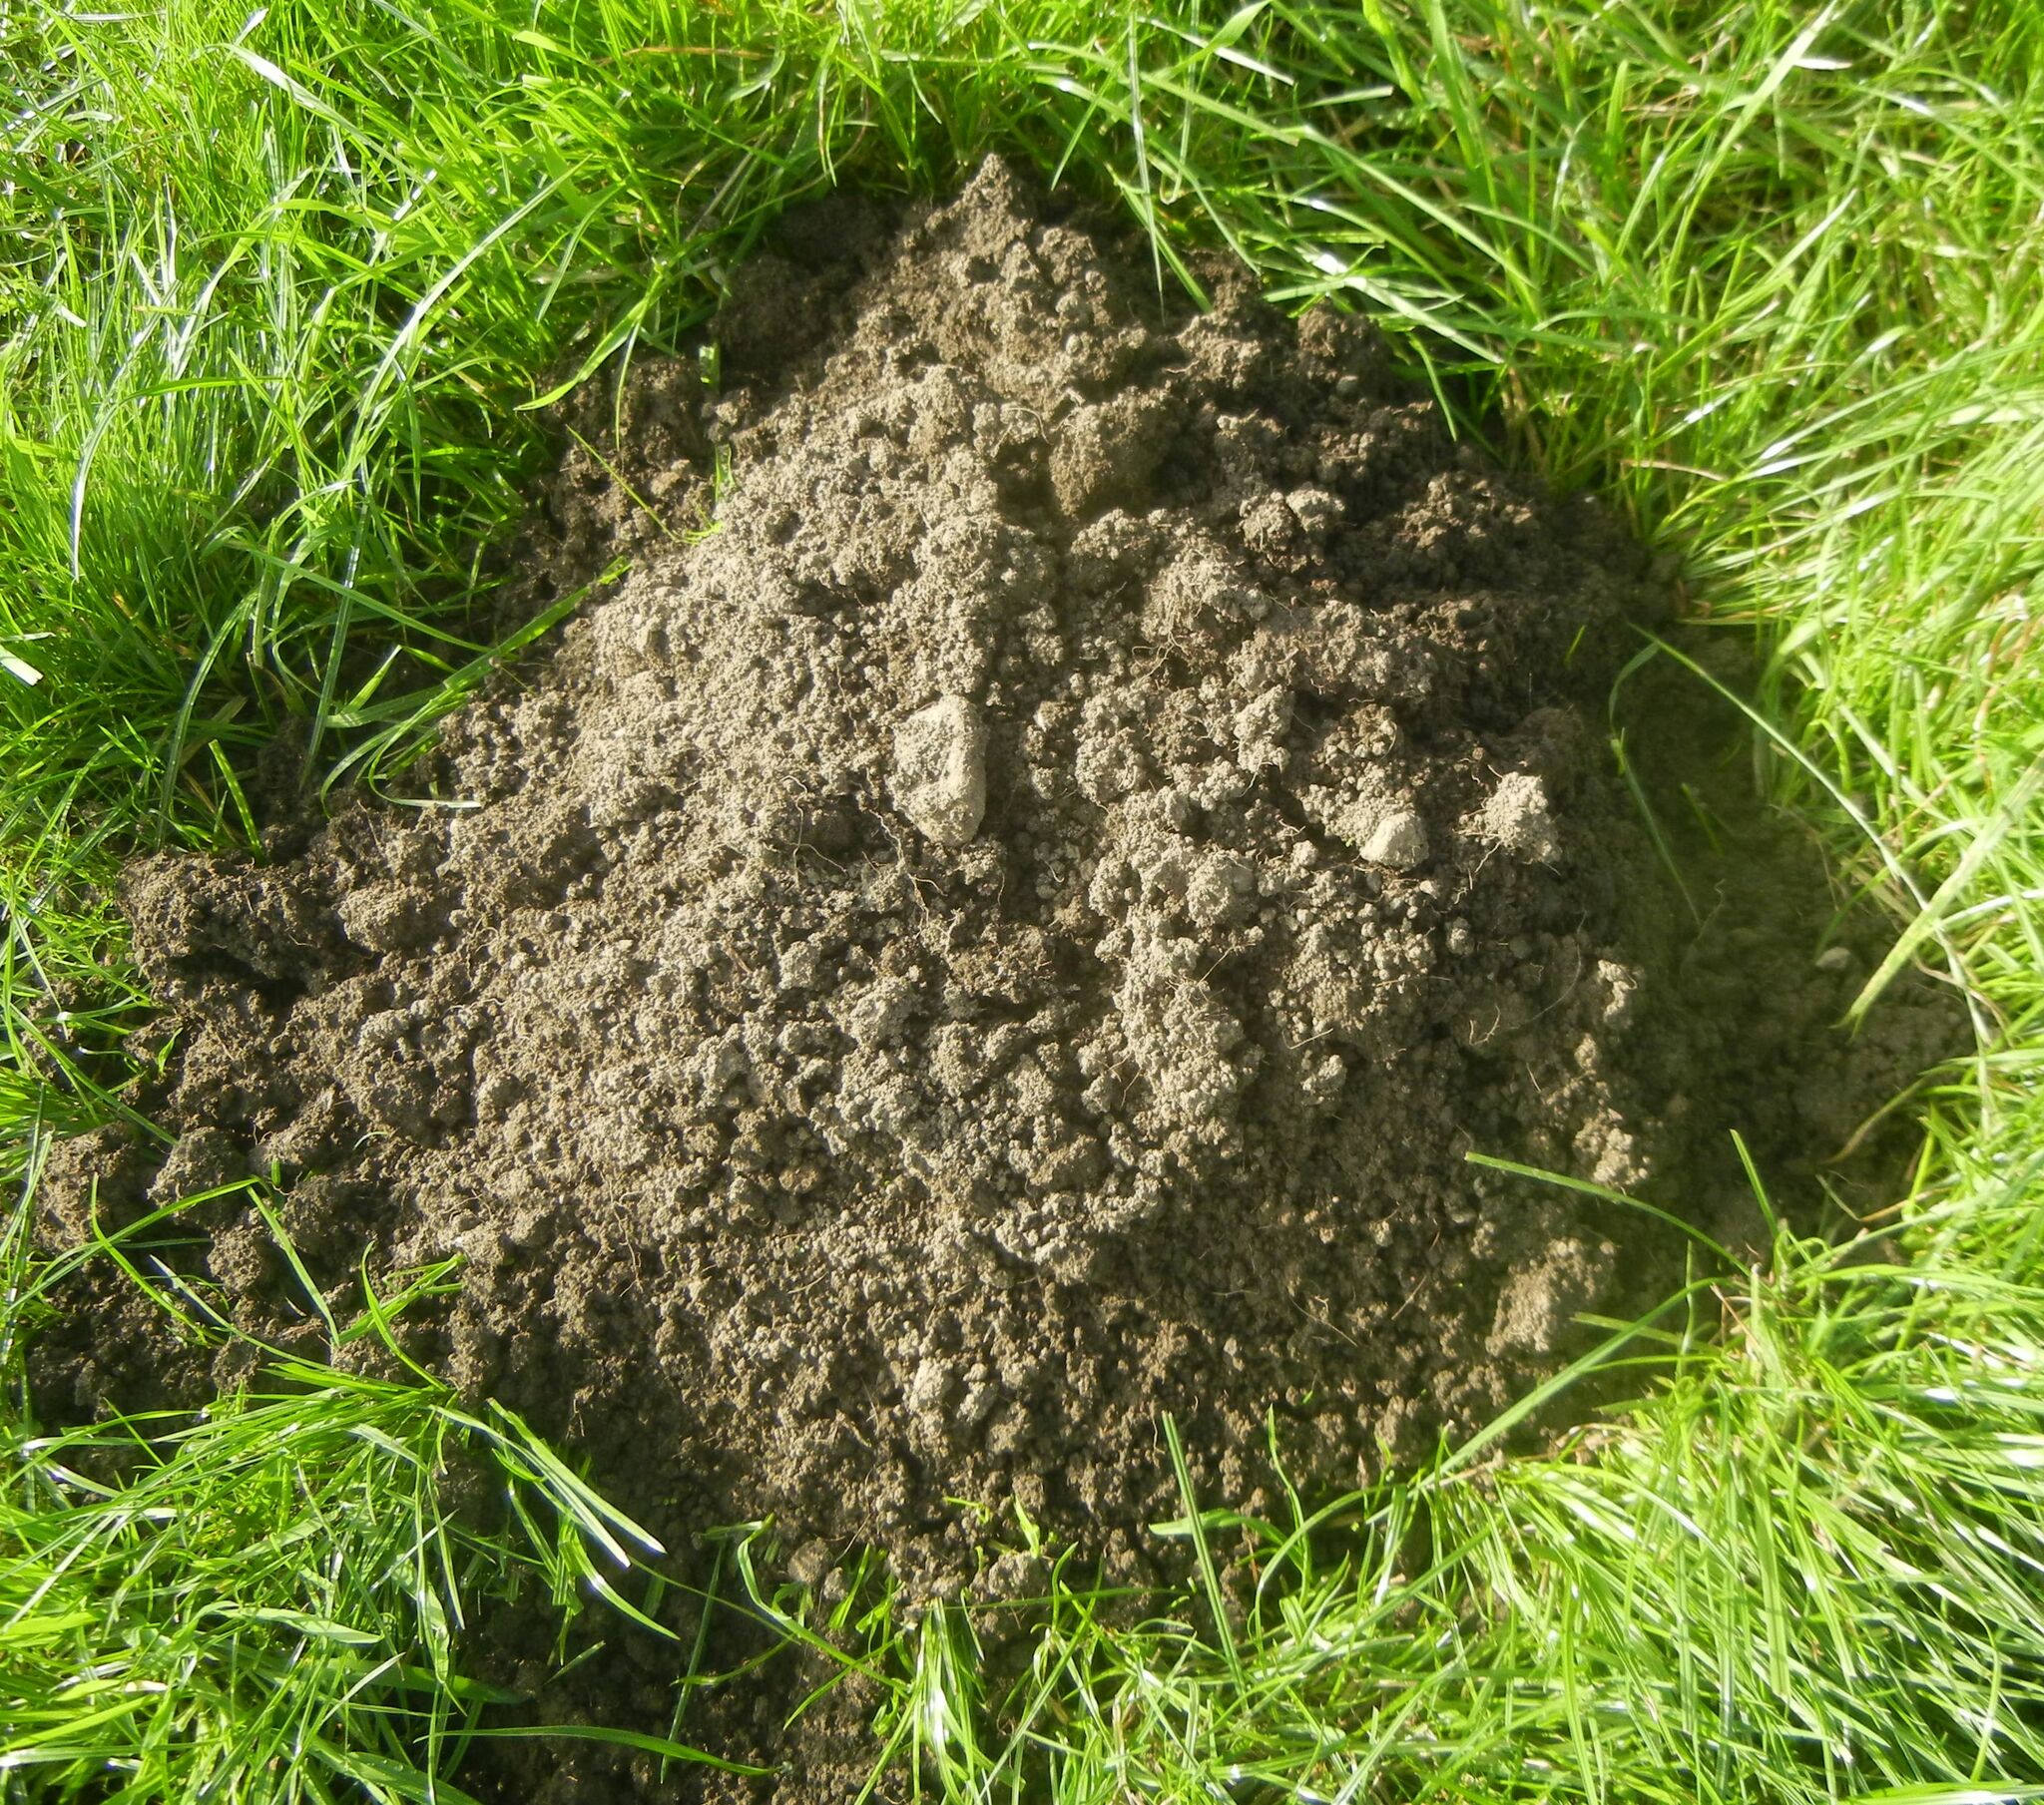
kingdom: Animalia
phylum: Chordata
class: Mammalia
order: Soricomorpha
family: Talpidae
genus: Talpa
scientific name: Talpa europaea
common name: European mole
